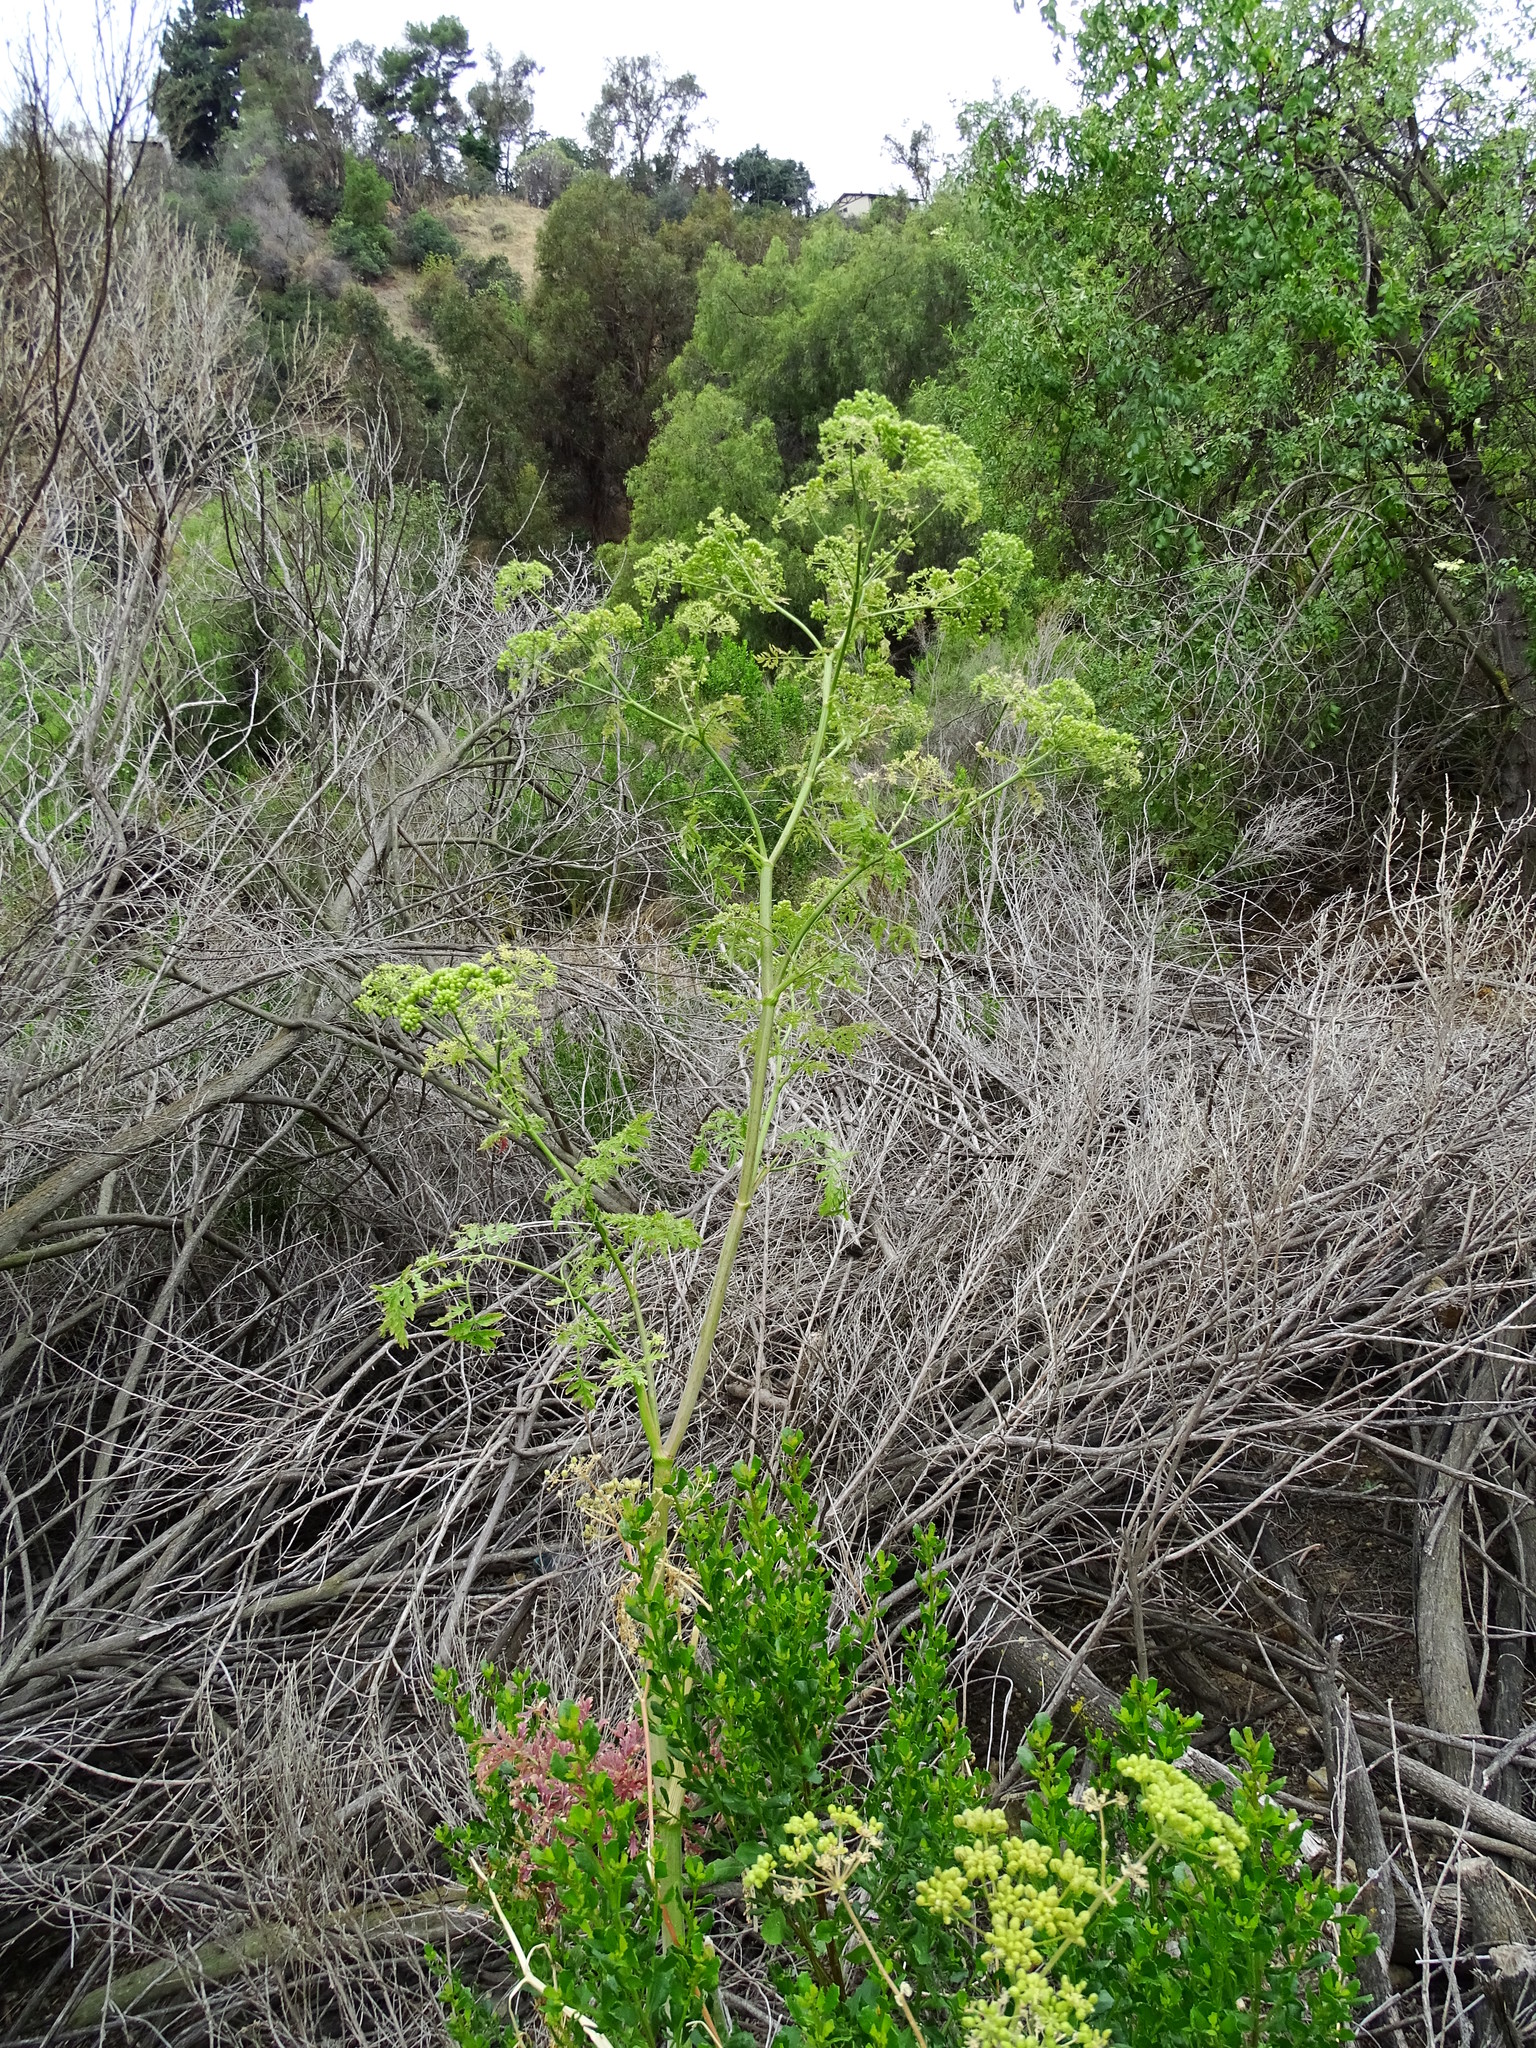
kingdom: Plantae
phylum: Tracheophyta
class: Magnoliopsida
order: Apiales
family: Apiaceae
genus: Conium
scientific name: Conium maculatum
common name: Hemlock
